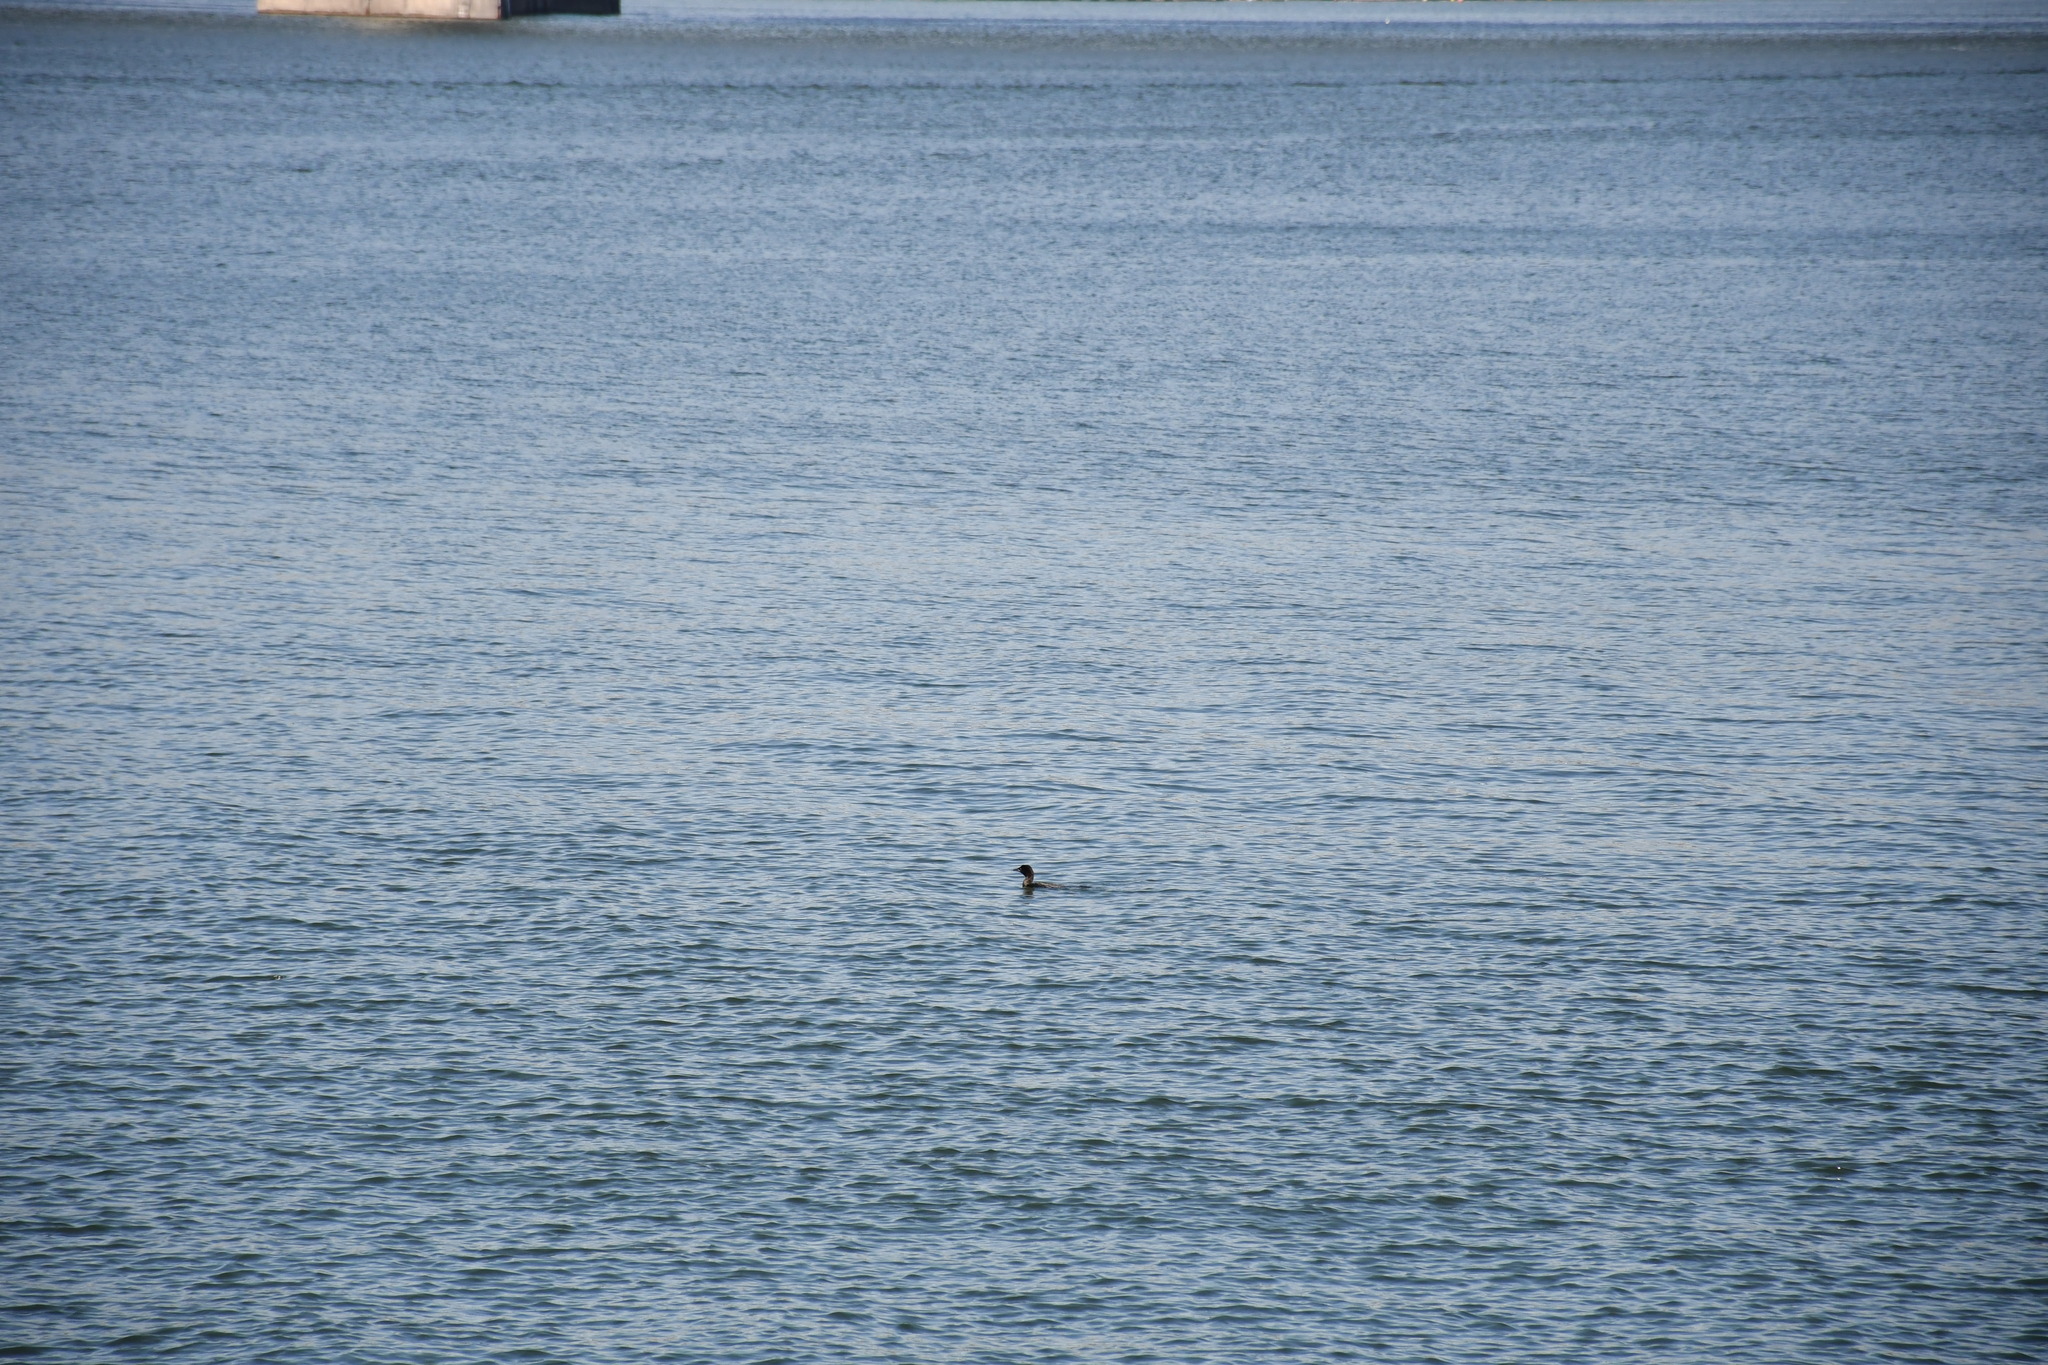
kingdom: Animalia
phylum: Chordata
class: Aves
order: Suliformes
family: Phalacrocoracidae
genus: Microcarbo
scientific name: Microcarbo pygmaeus
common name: Pygmy cormorant
